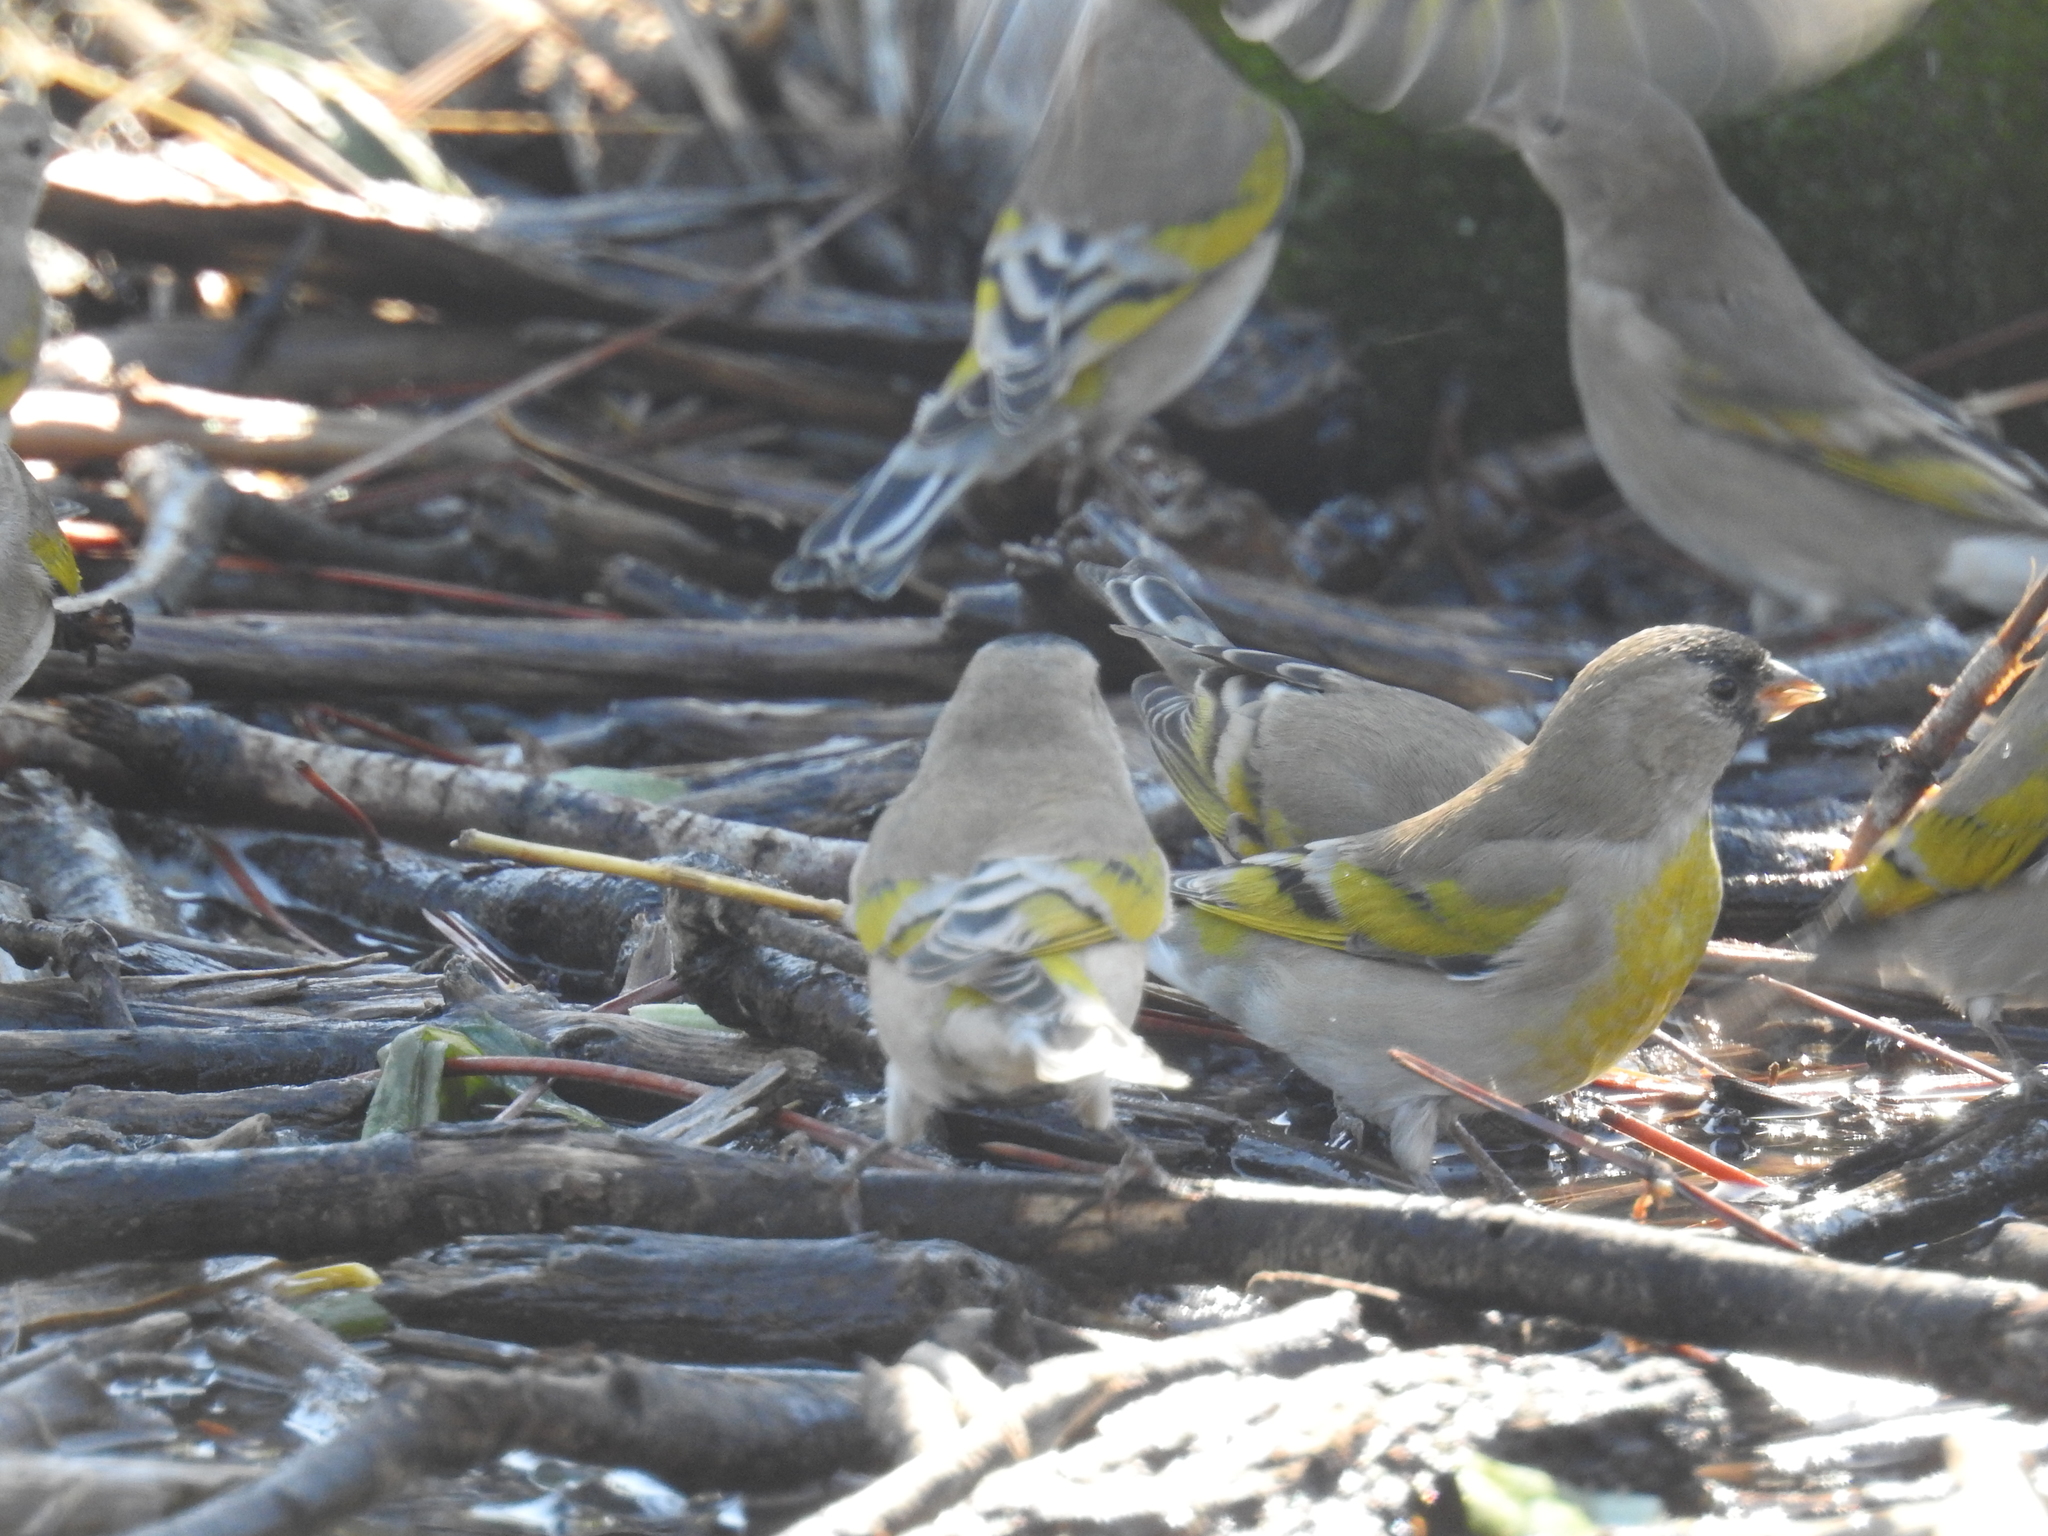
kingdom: Animalia
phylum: Chordata
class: Aves
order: Passeriformes
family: Fringillidae
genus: Spinus
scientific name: Spinus lawrencei
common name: Lawrence's goldfinch
